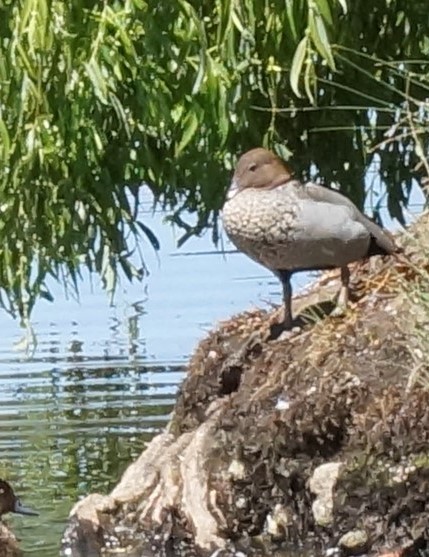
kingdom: Animalia
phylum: Chordata
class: Aves
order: Anseriformes
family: Anatidae
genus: Chenonetta
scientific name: Chenonetta jubata
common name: Maned duck
